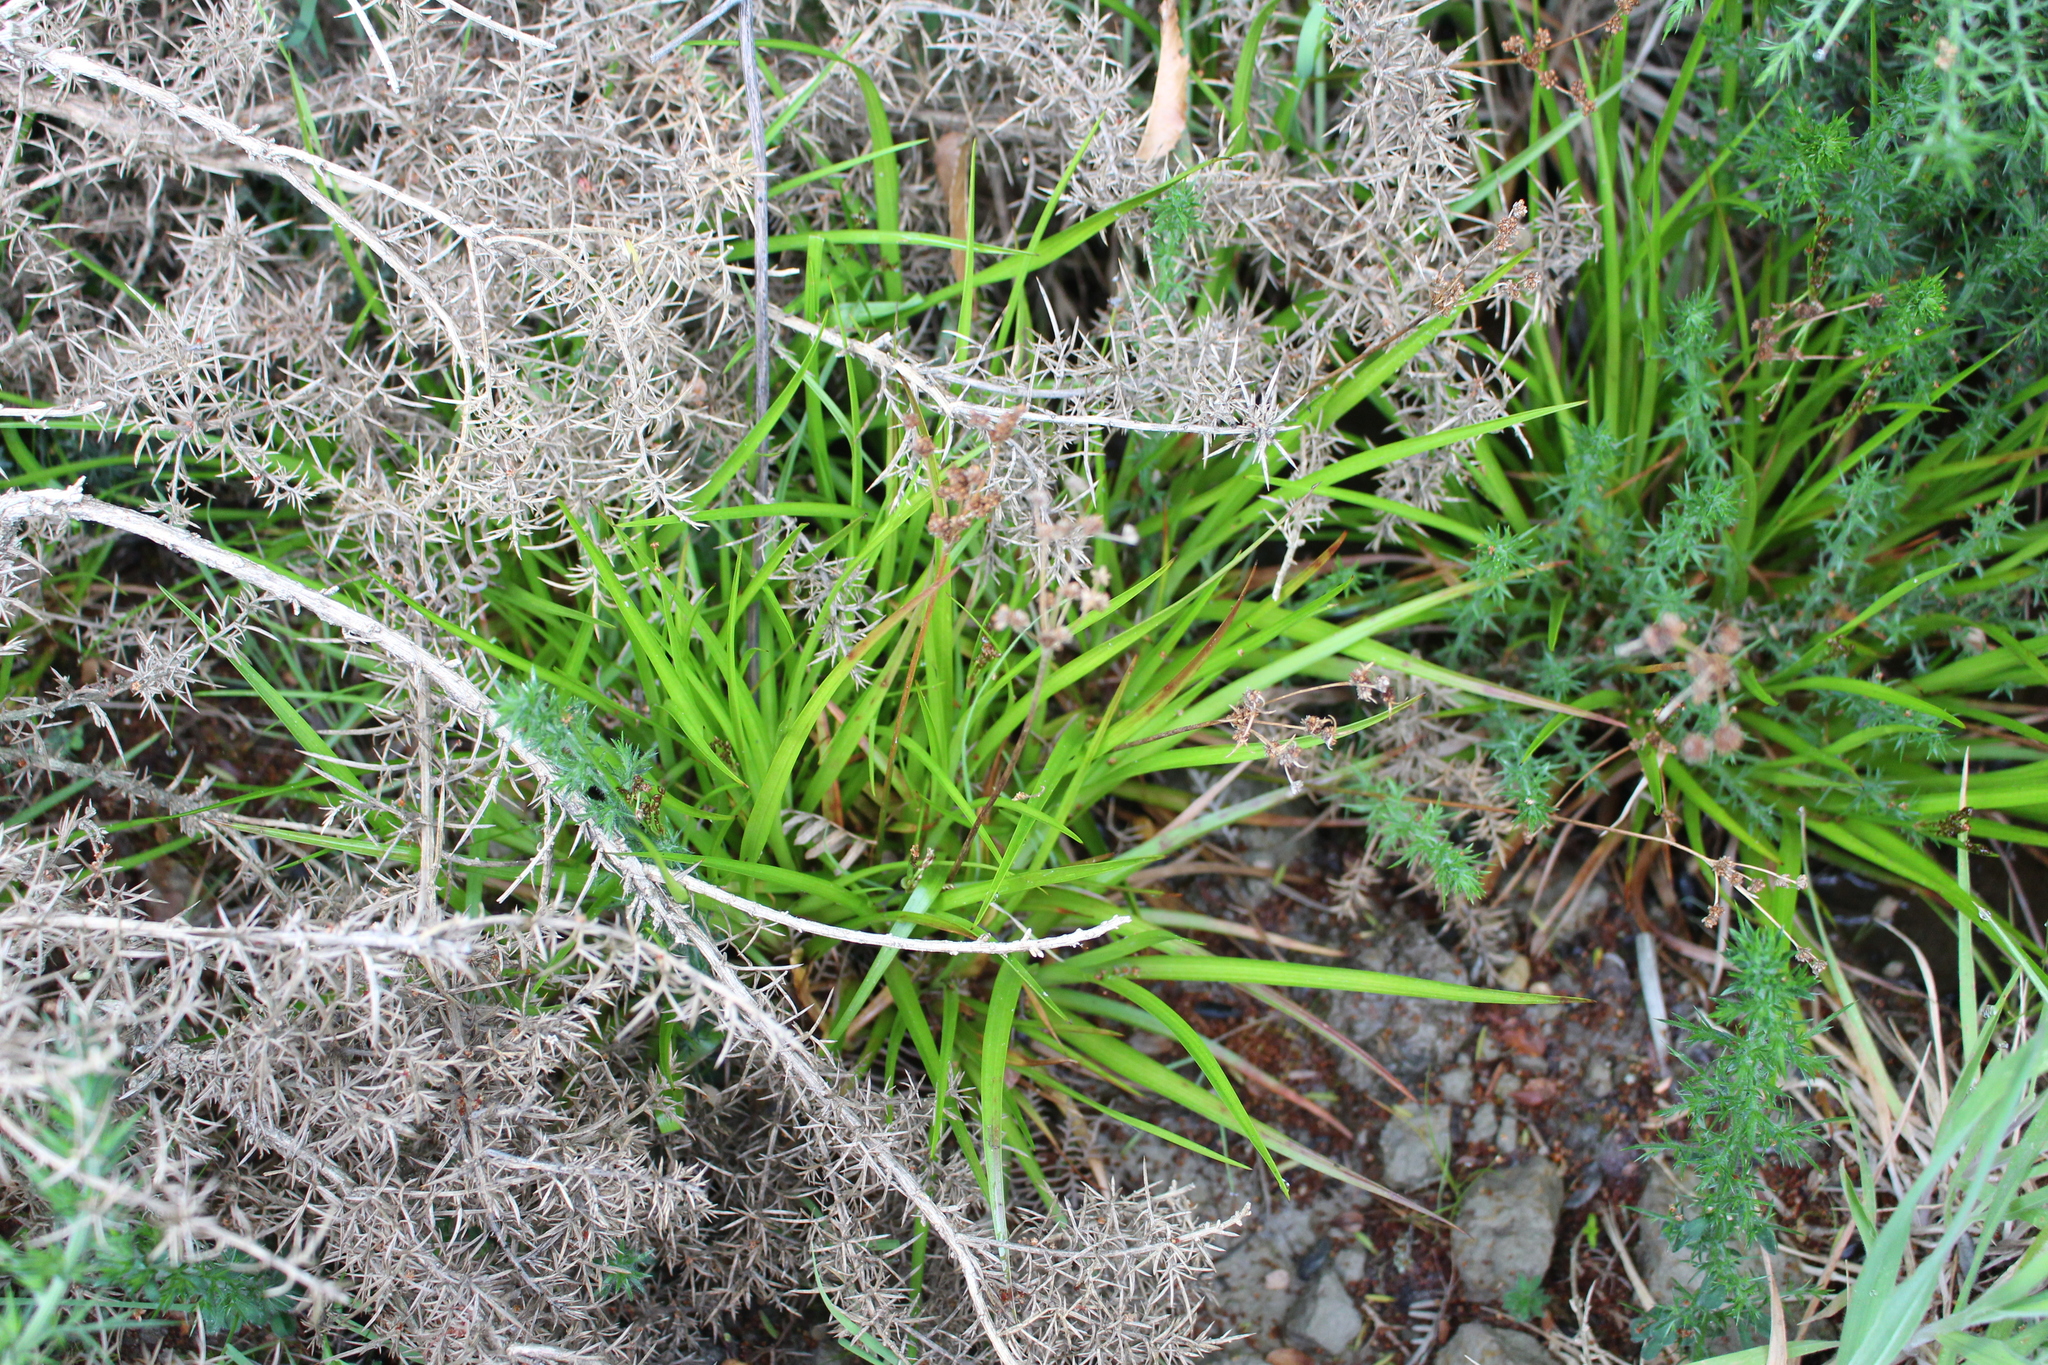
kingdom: Plantae
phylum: Tracheophyta
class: Liliopsida
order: Poales
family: Juncaceae
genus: Juncus
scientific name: Juncus planifolius
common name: Broadleaf rush
